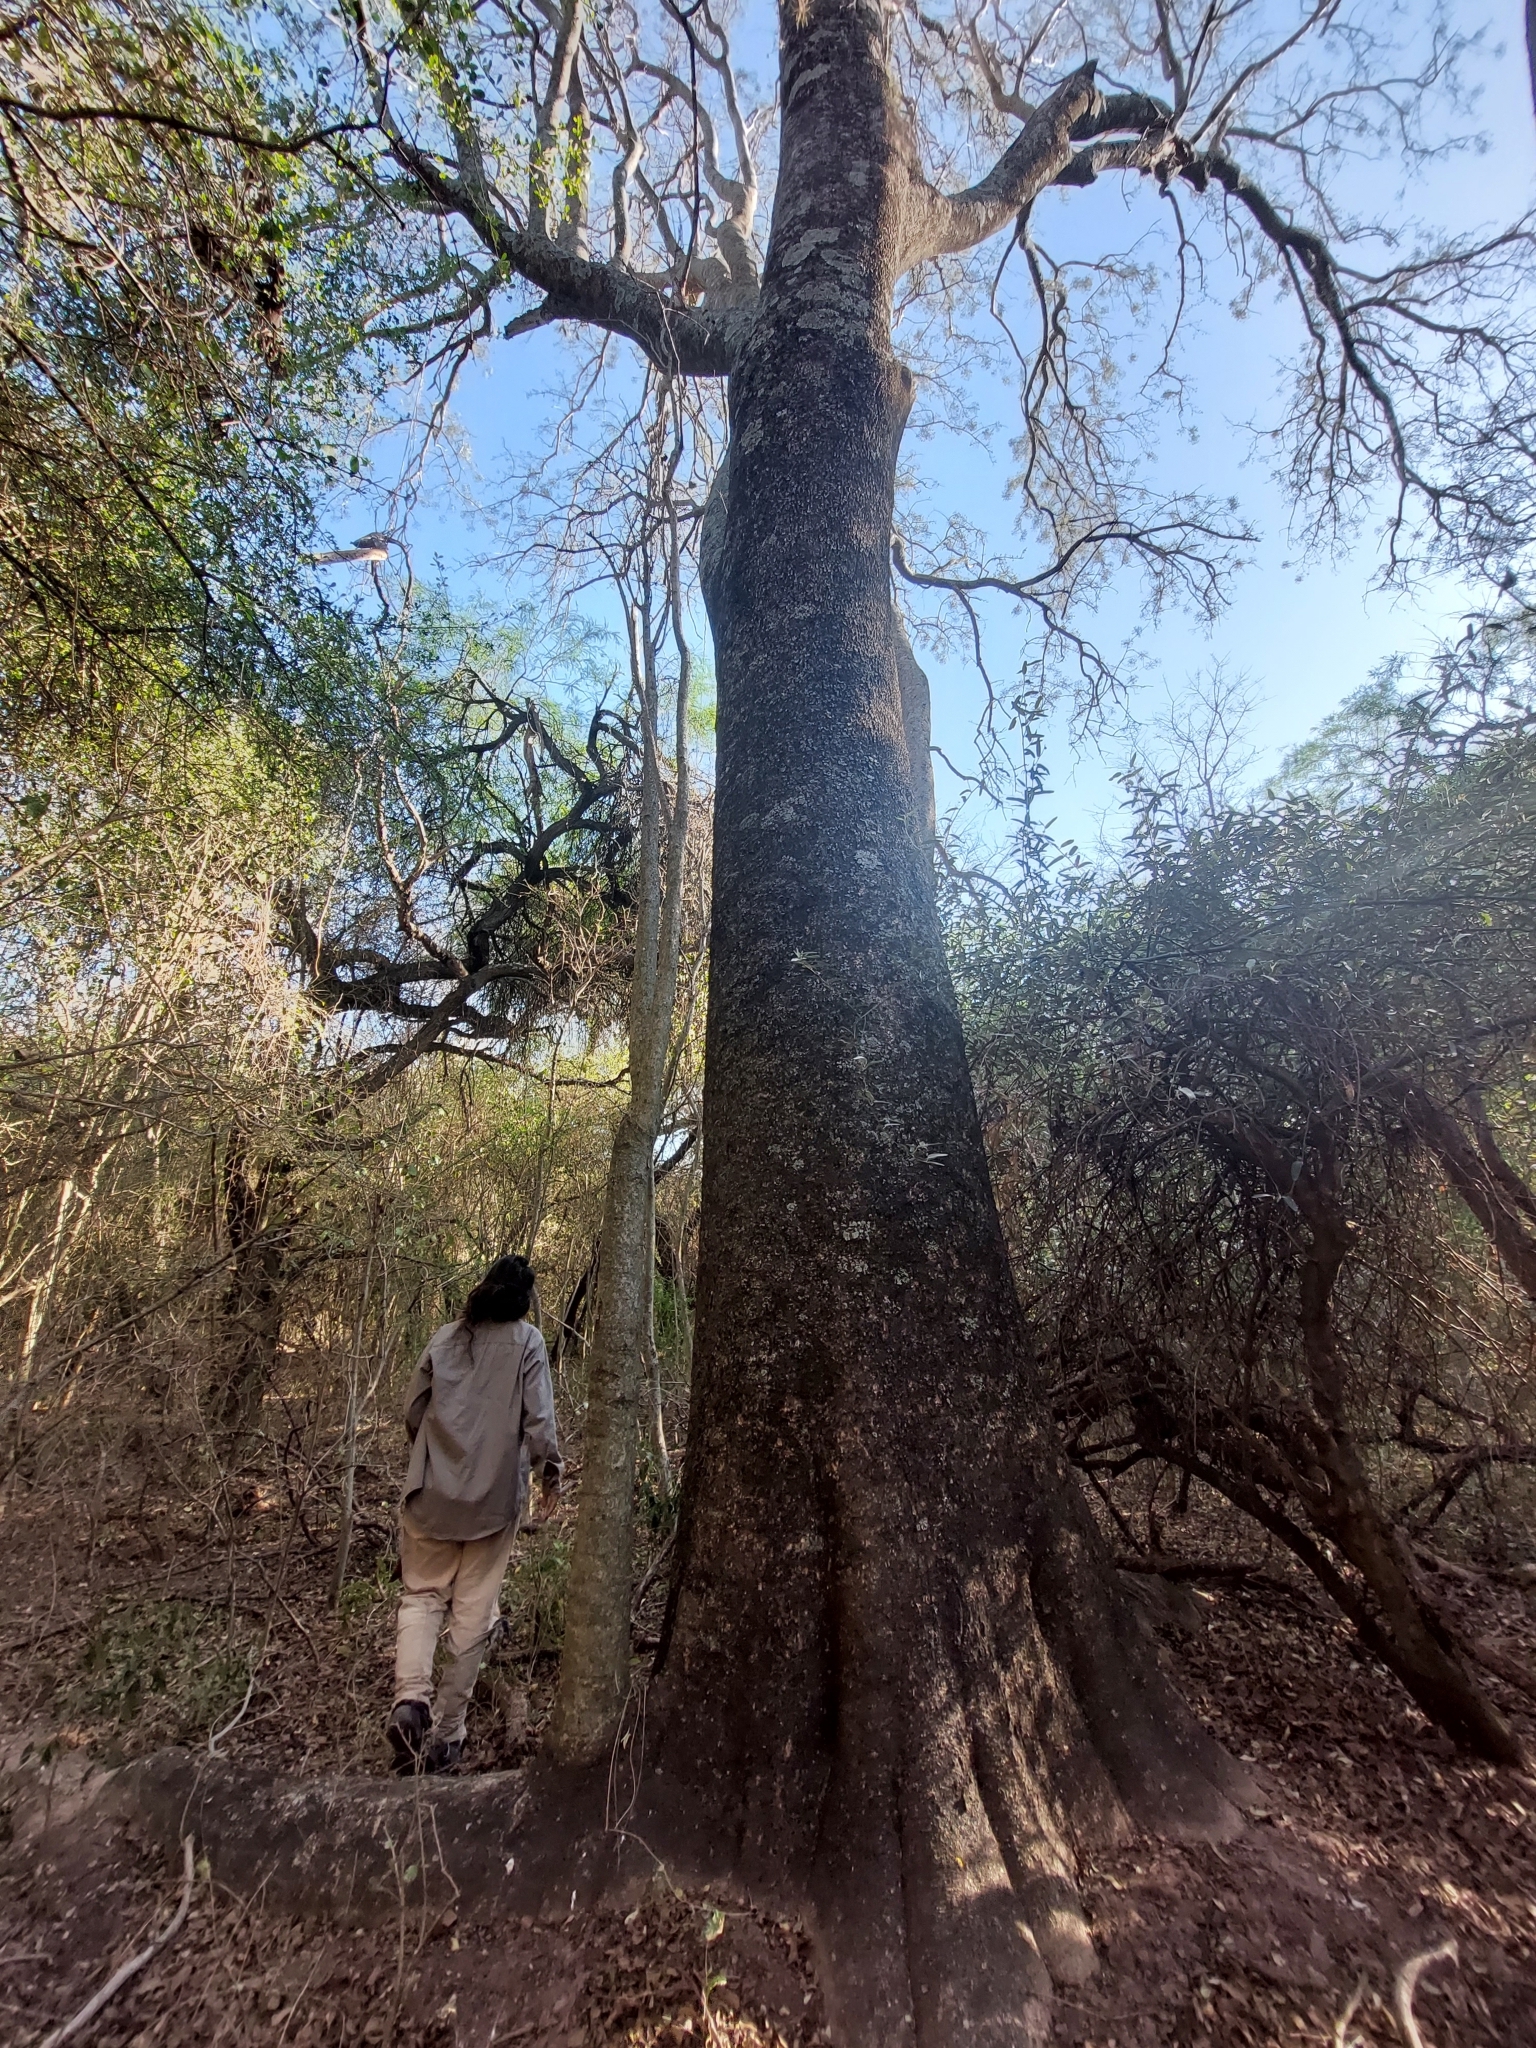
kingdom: Plantae
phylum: Tracheophyta
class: Magnoliopsida
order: Caryophyllales
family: Nyctaginaceae
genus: Pisonia
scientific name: Pisonia zapallo
